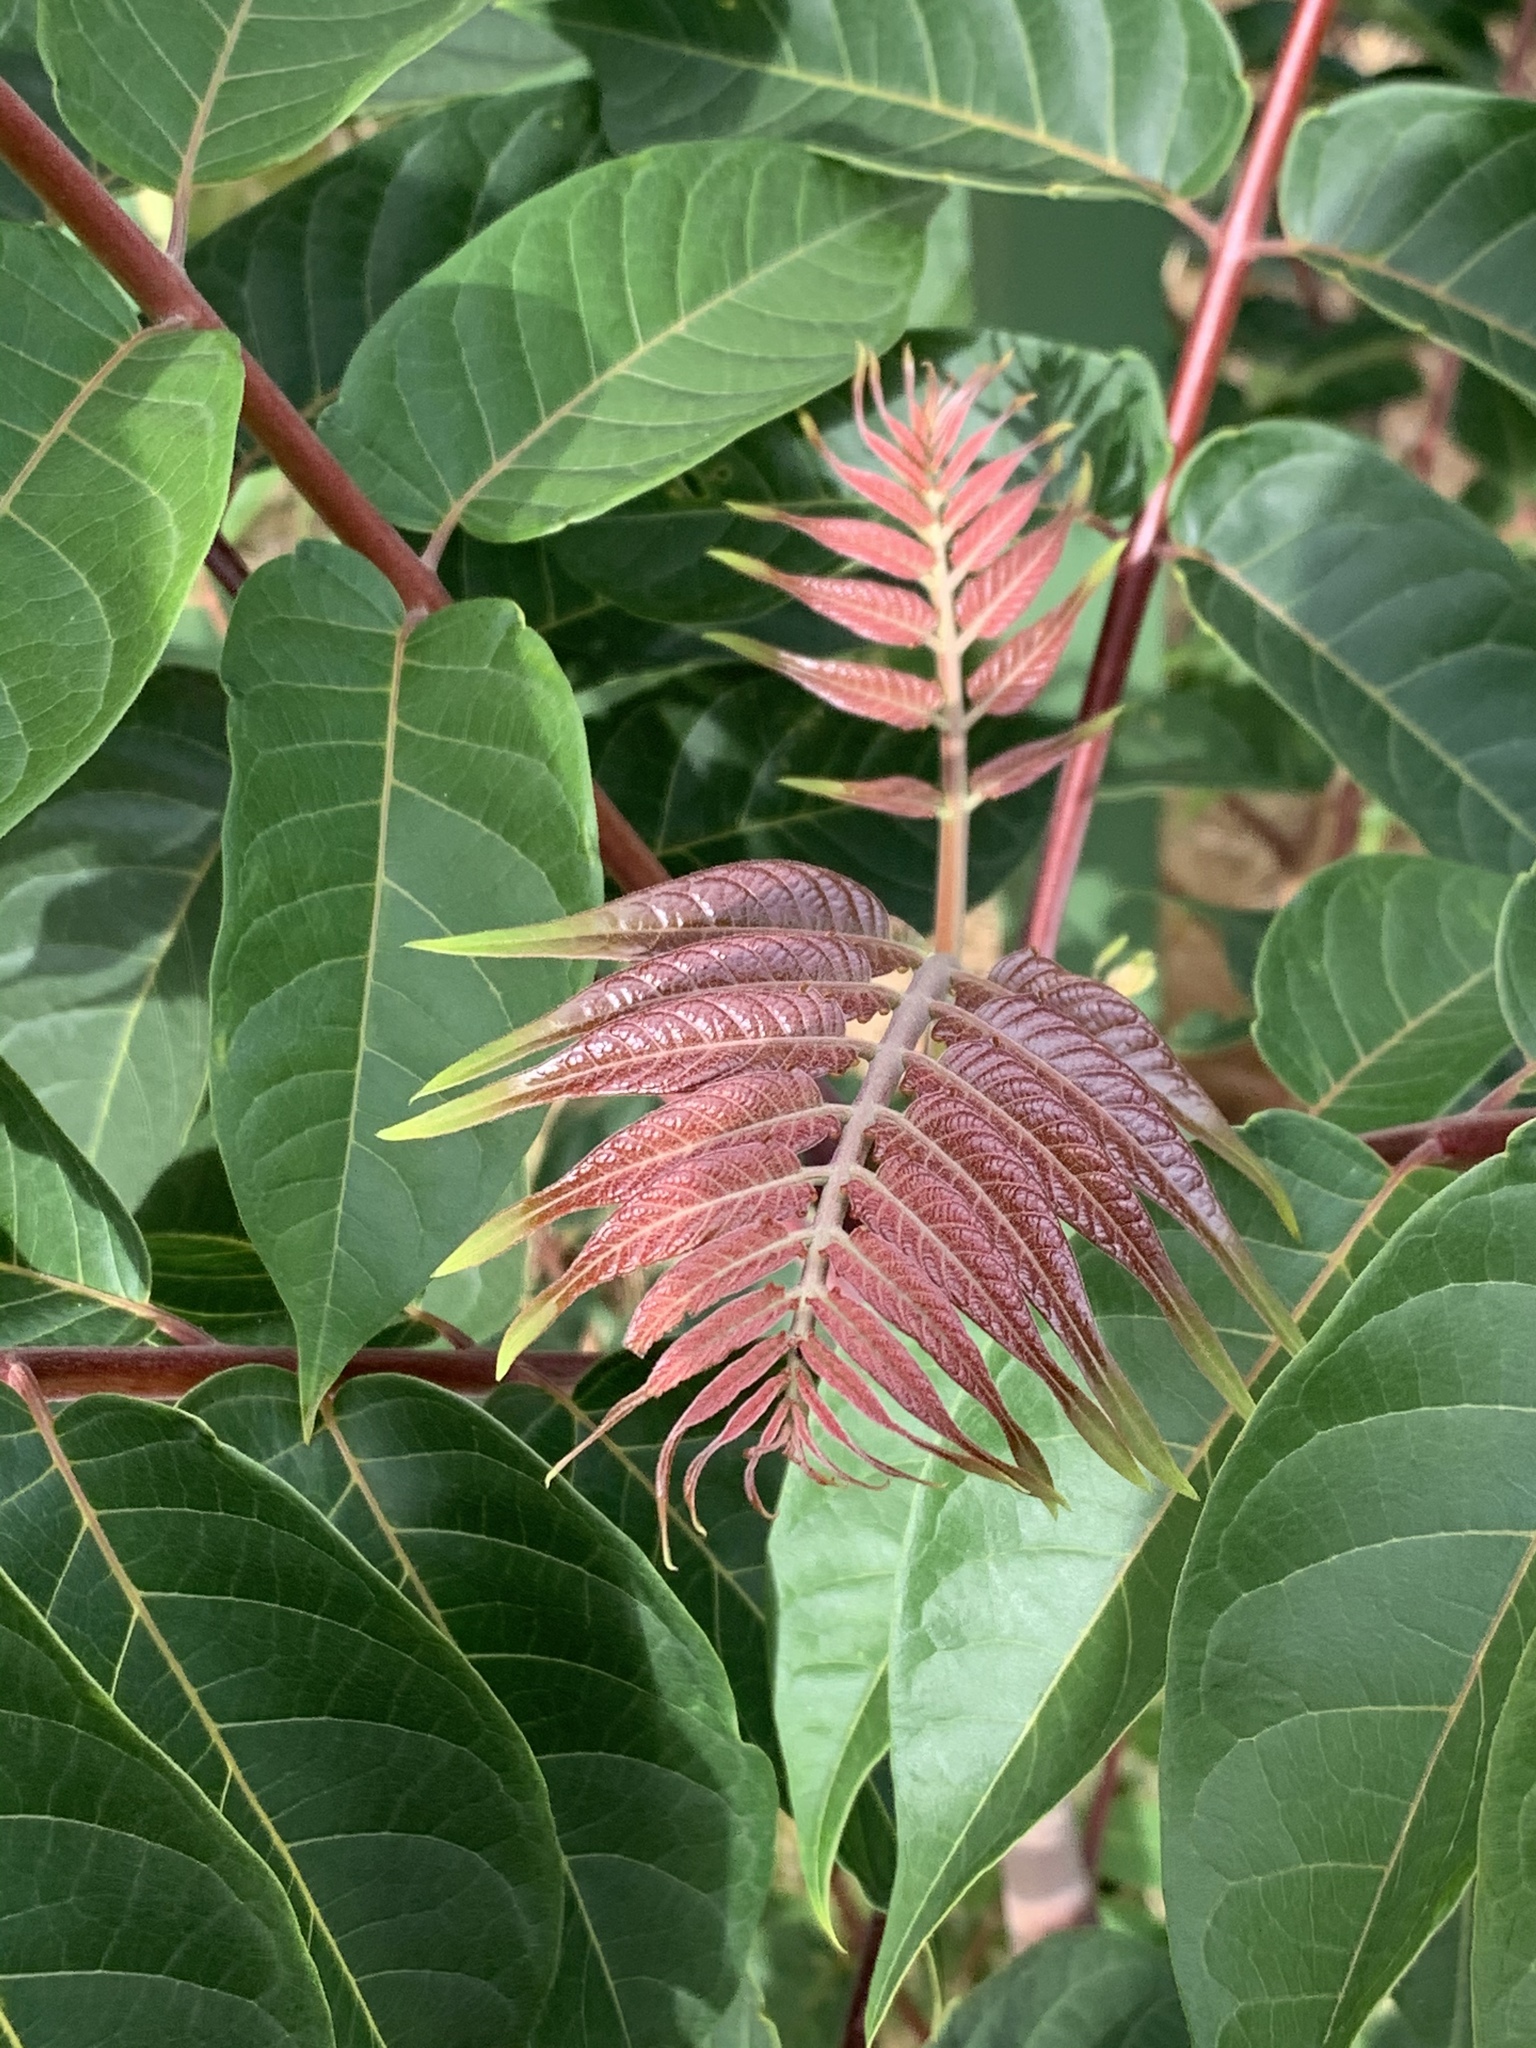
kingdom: Plantae
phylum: Tracheophyta
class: Magnoliopsida
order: Sapindales
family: Simaroubaceae
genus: Ailanthus
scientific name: Ailanthus altissima
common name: Tree-of-heaven
